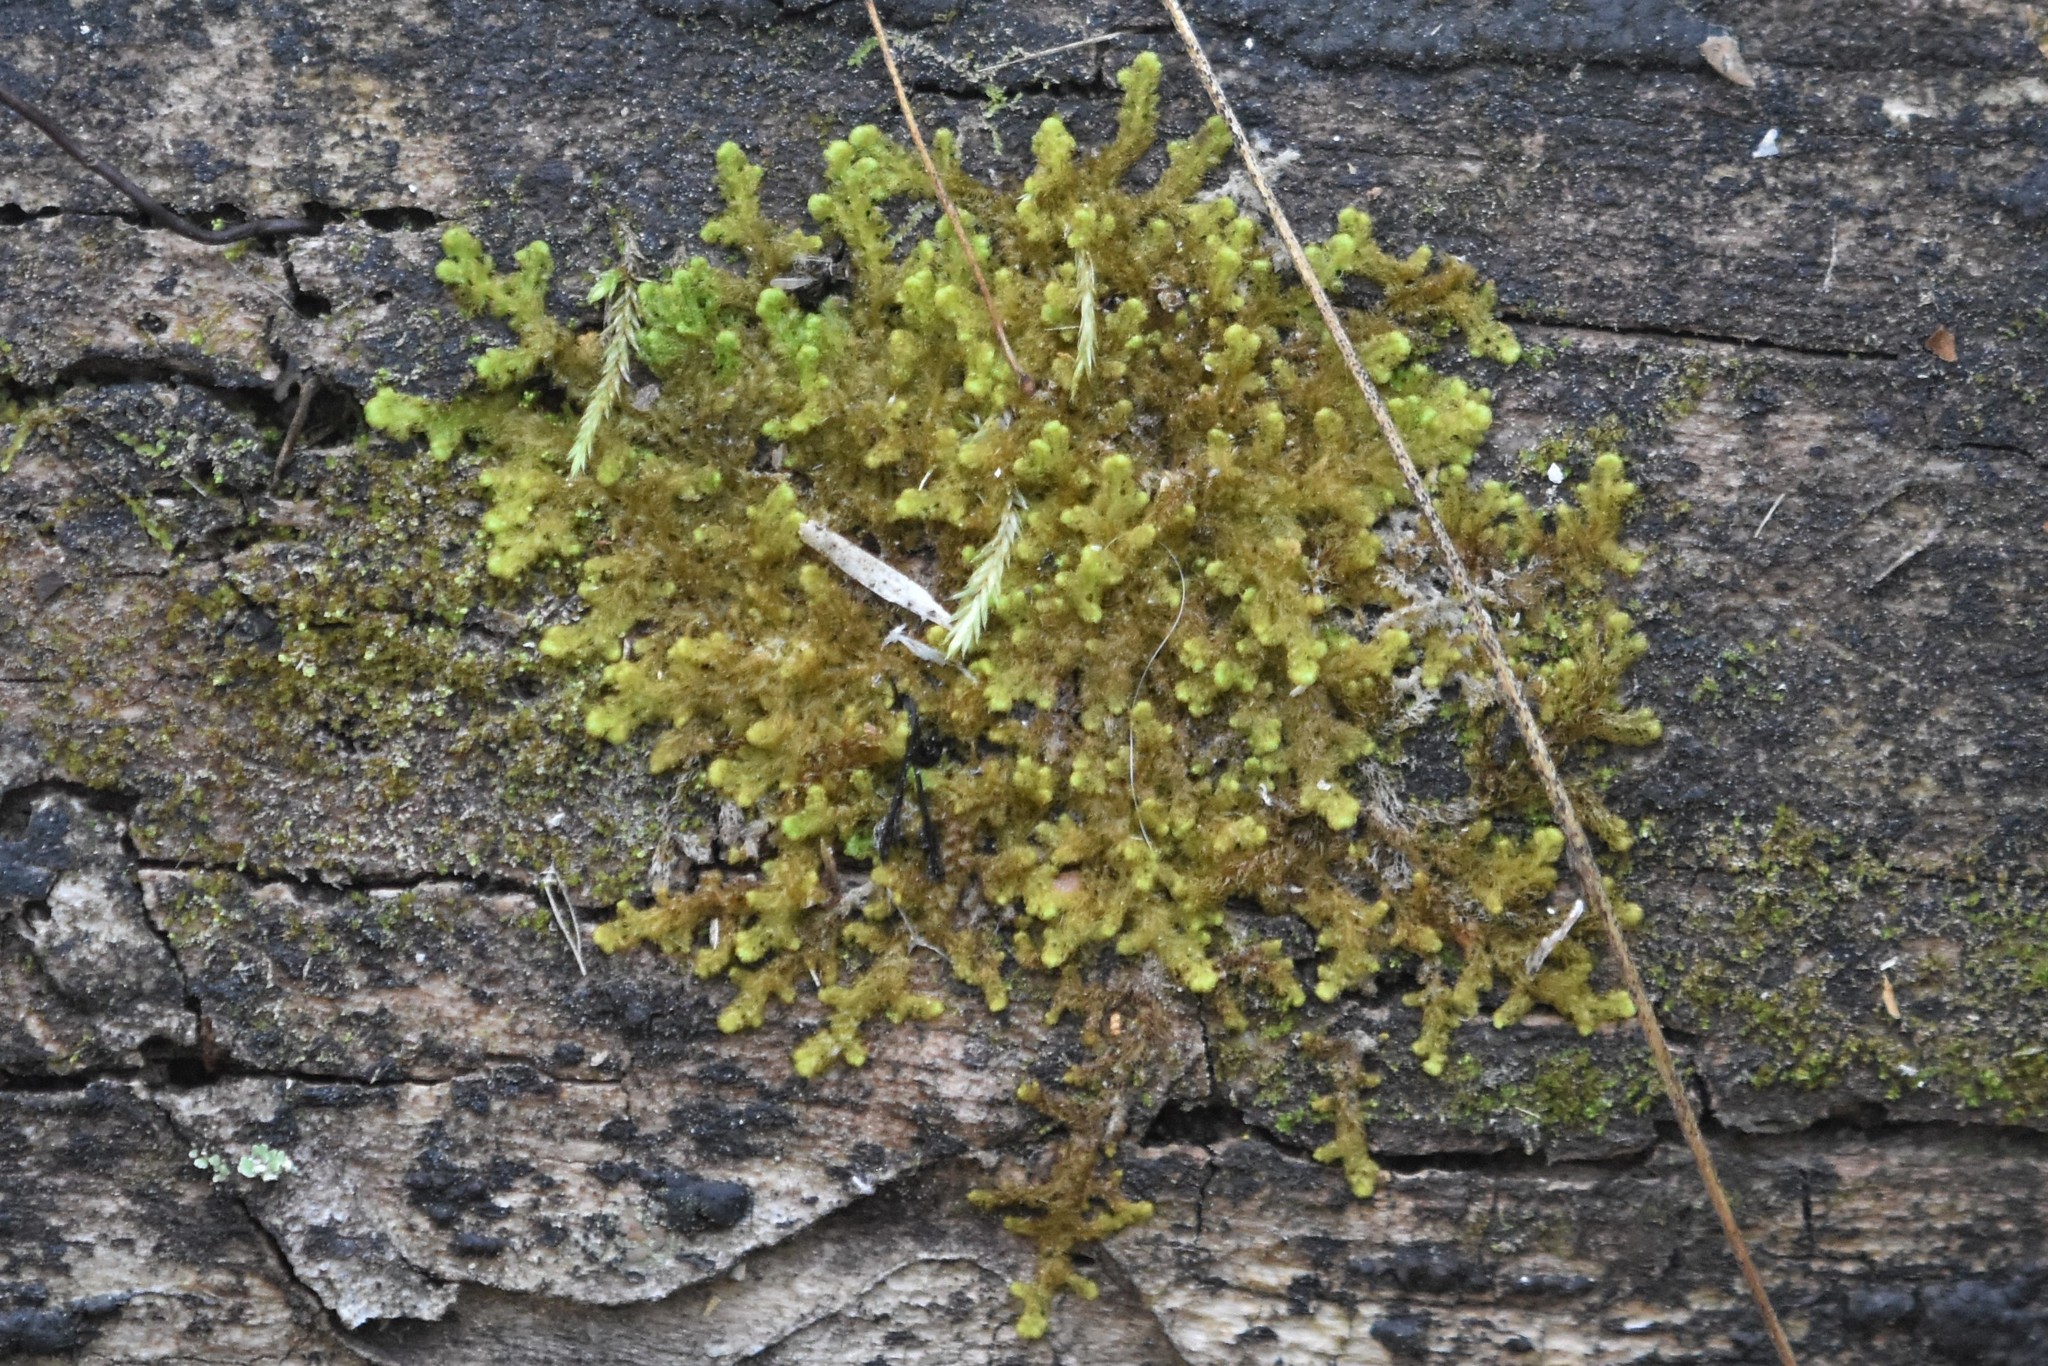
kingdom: Plantae
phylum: Marchantiophyta
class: Jungermanniopsida
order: Ptilidiales
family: Ptilidiaceae
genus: Ptilidium
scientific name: Ptilidium pulcherrimum
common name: Tree fringewort
